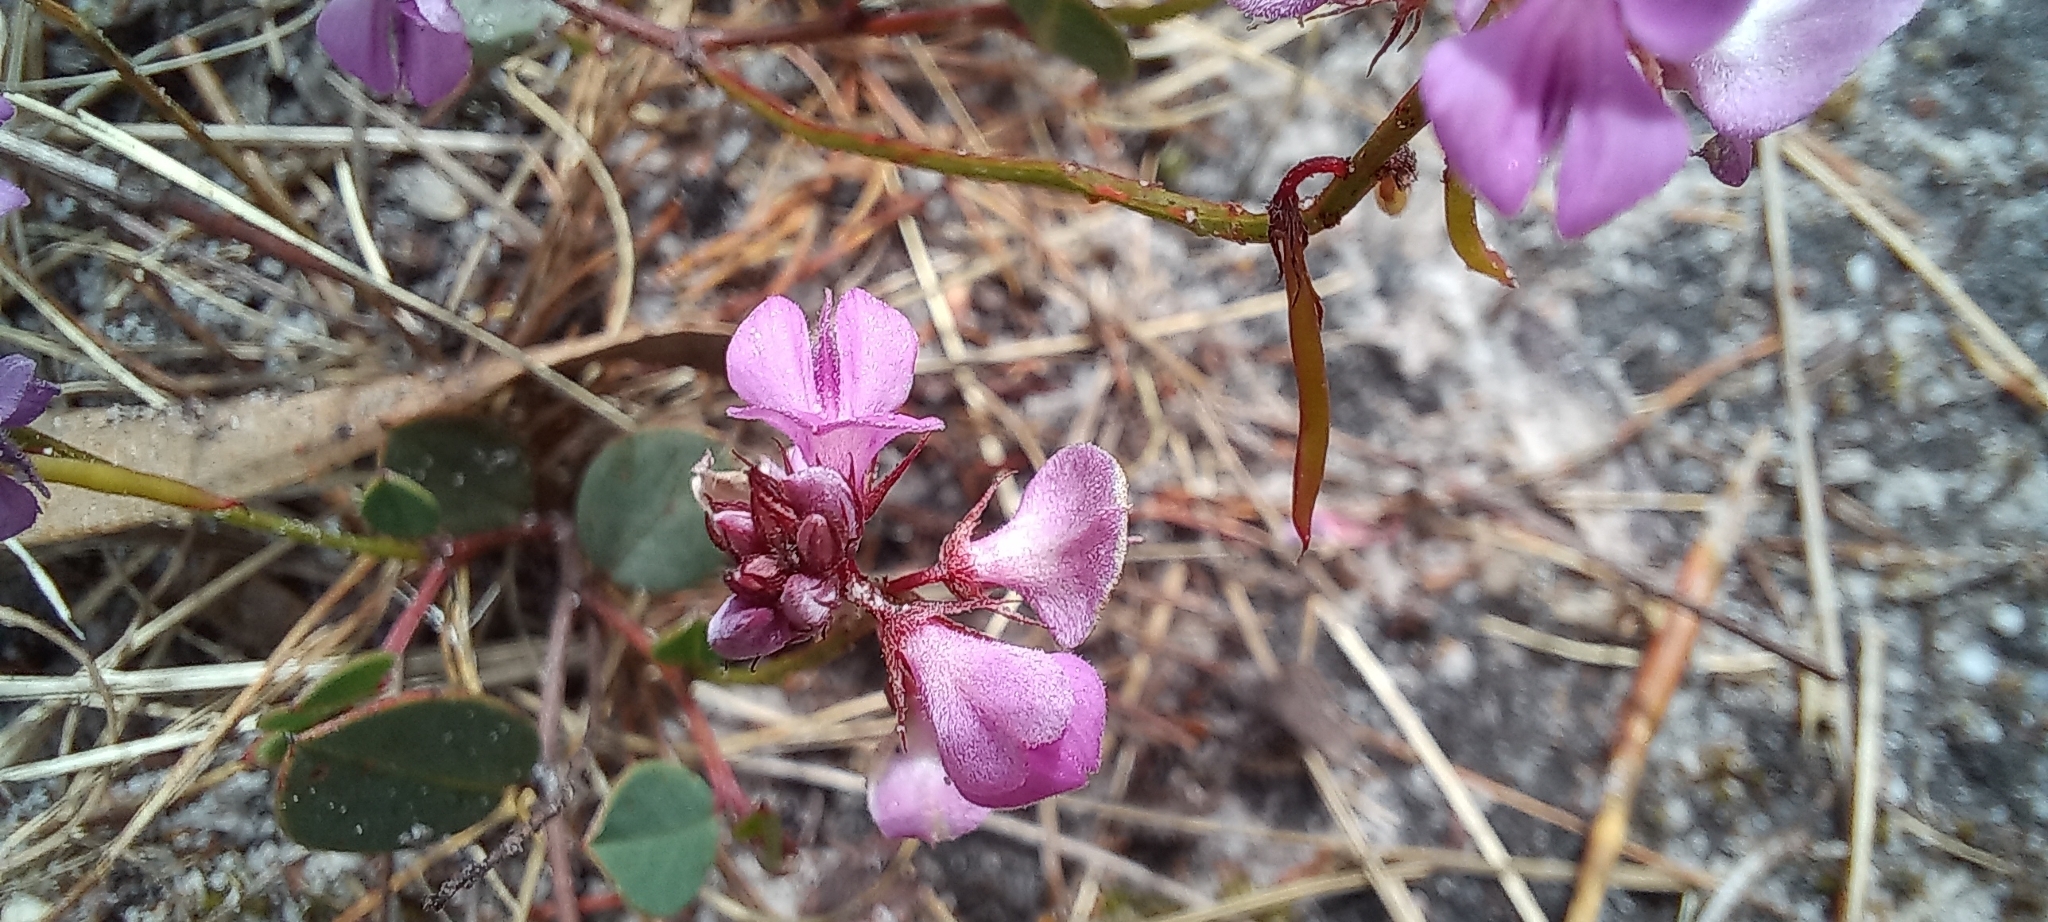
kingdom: Plantae
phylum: Tracheophyta
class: Magnoliopsida
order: Fabales
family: Fabaceae
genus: Indigofera
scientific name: Indigofera ovata
